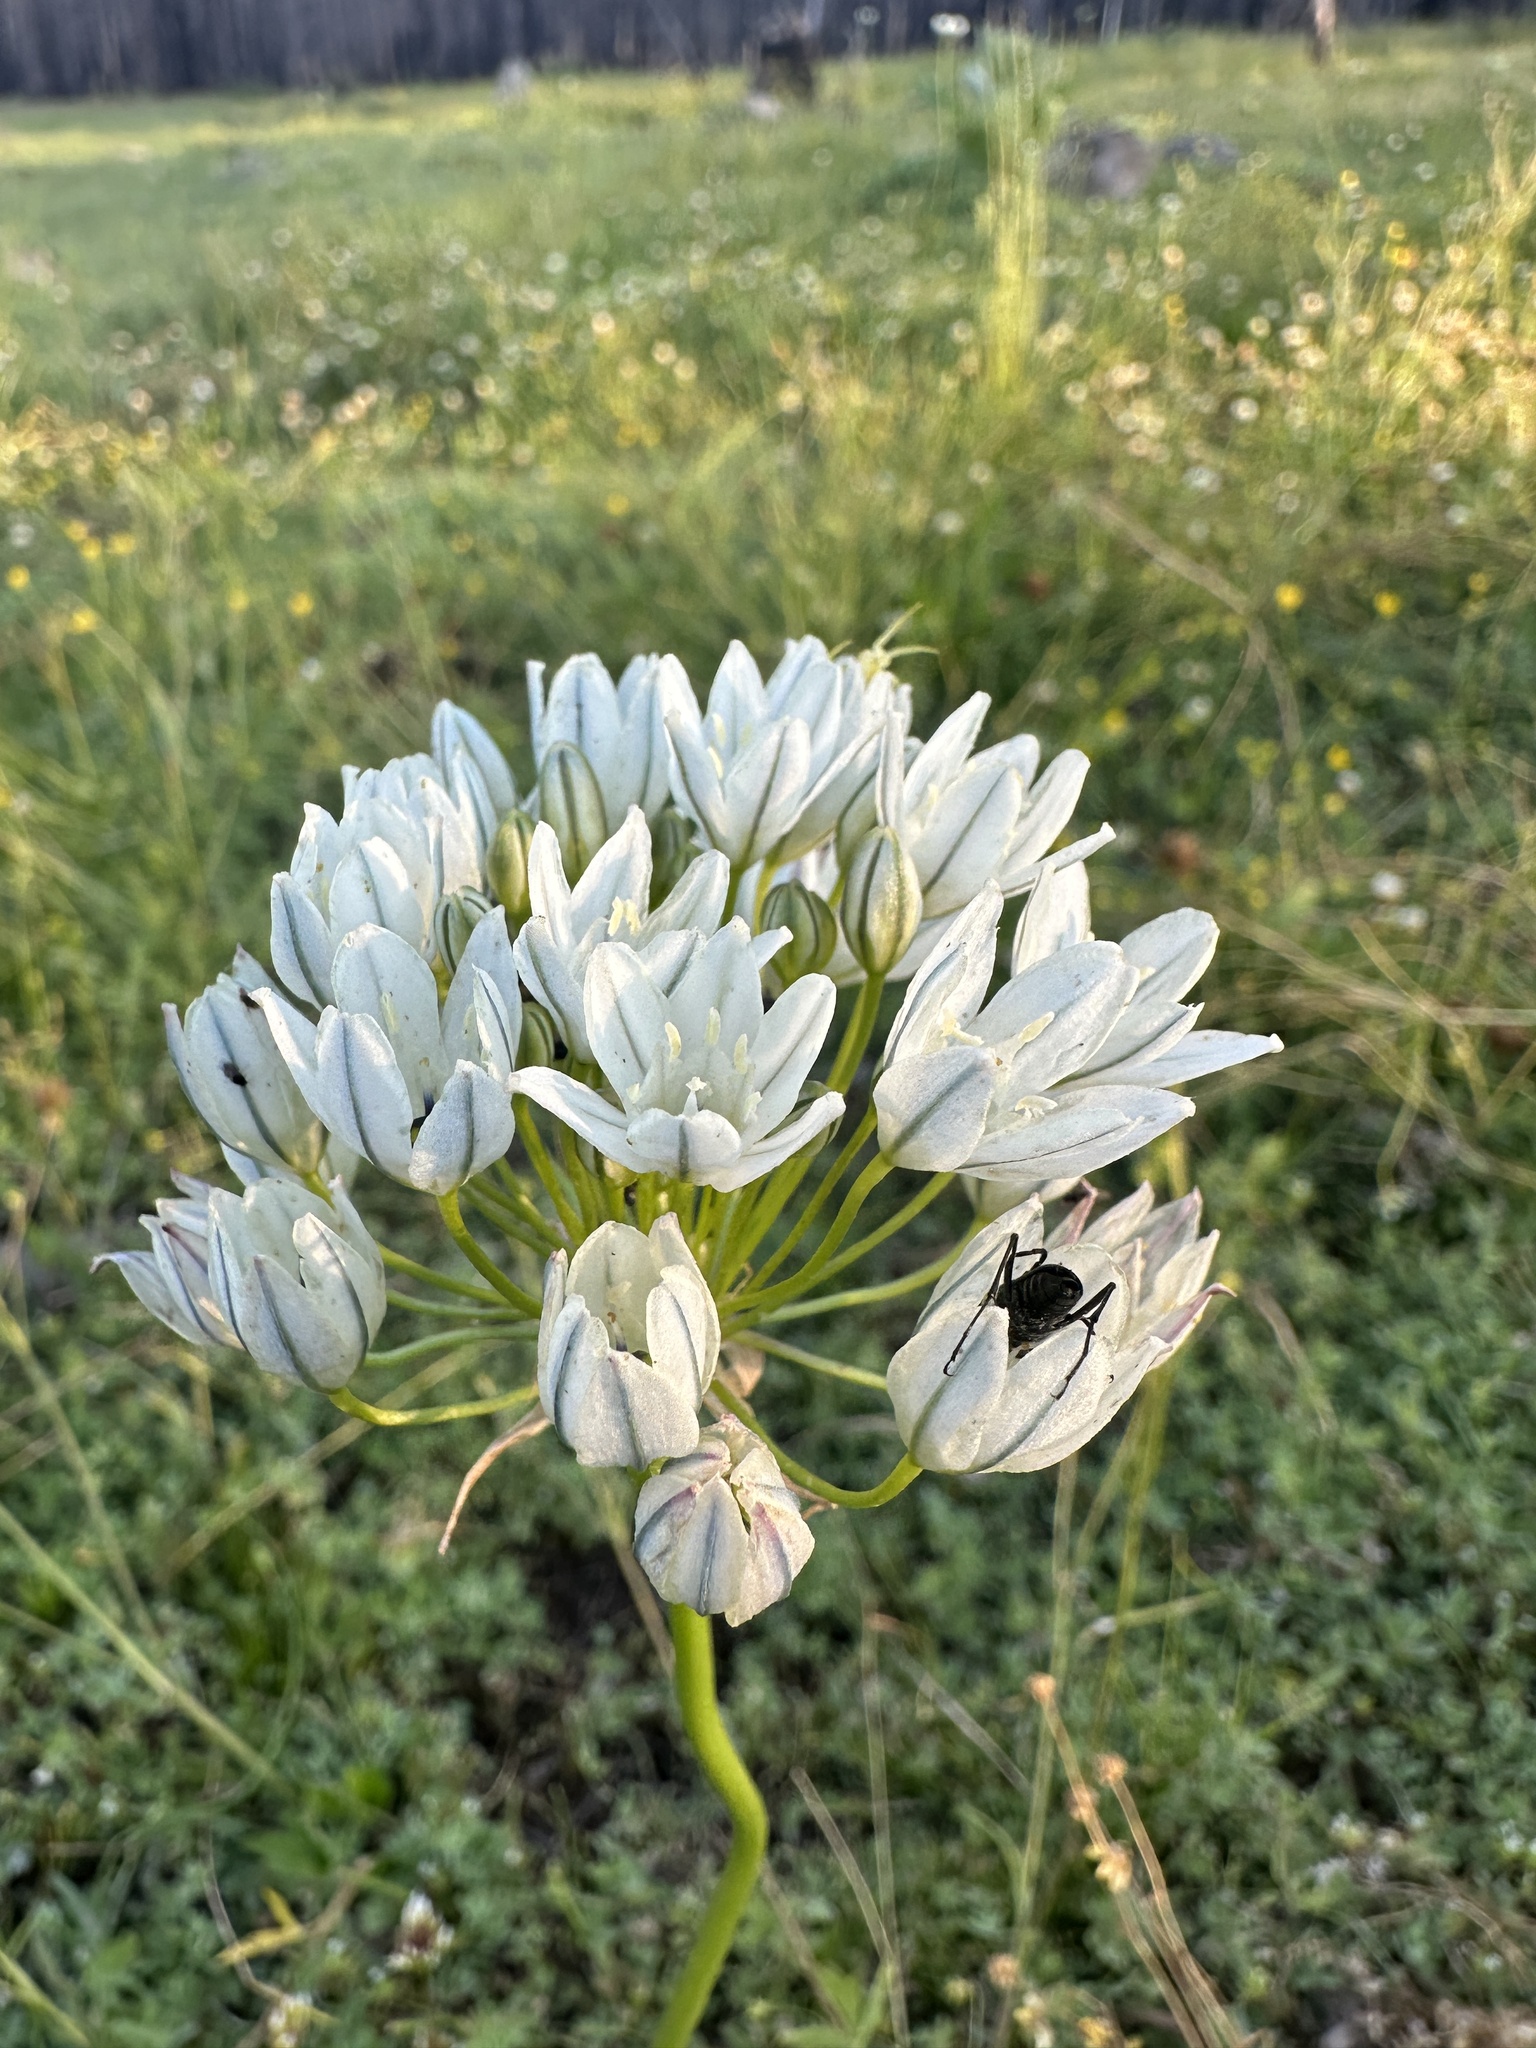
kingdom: Plantae
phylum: Tracheophyta
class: Liliopsida
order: Asparagales
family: Asparagaceae
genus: Triteleia
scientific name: Triteleia hyacinthina
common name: White brodiaea
